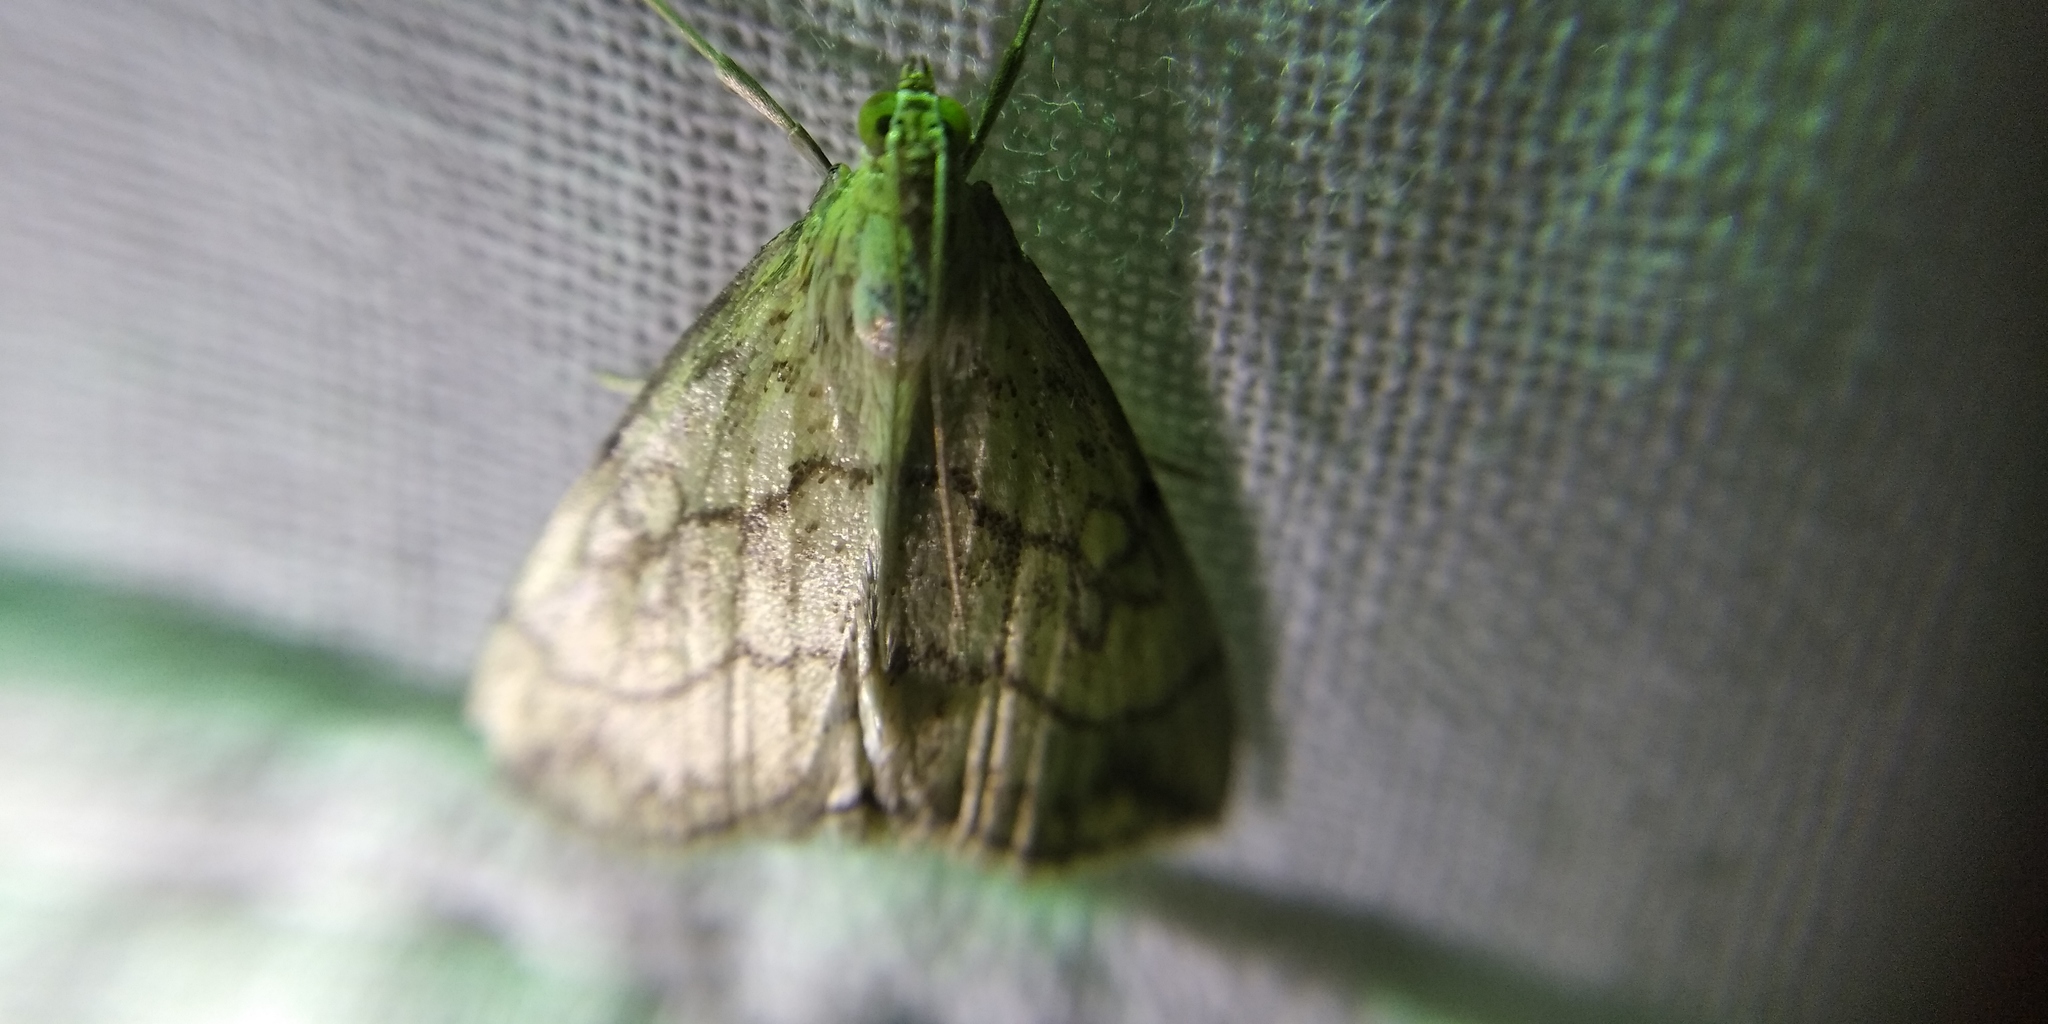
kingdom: Animalia
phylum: Arthropoda
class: Insecta
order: Lepidoptera
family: Crambidae
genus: Evergestis
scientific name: Evergestis pallidata
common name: Chequered pearl
